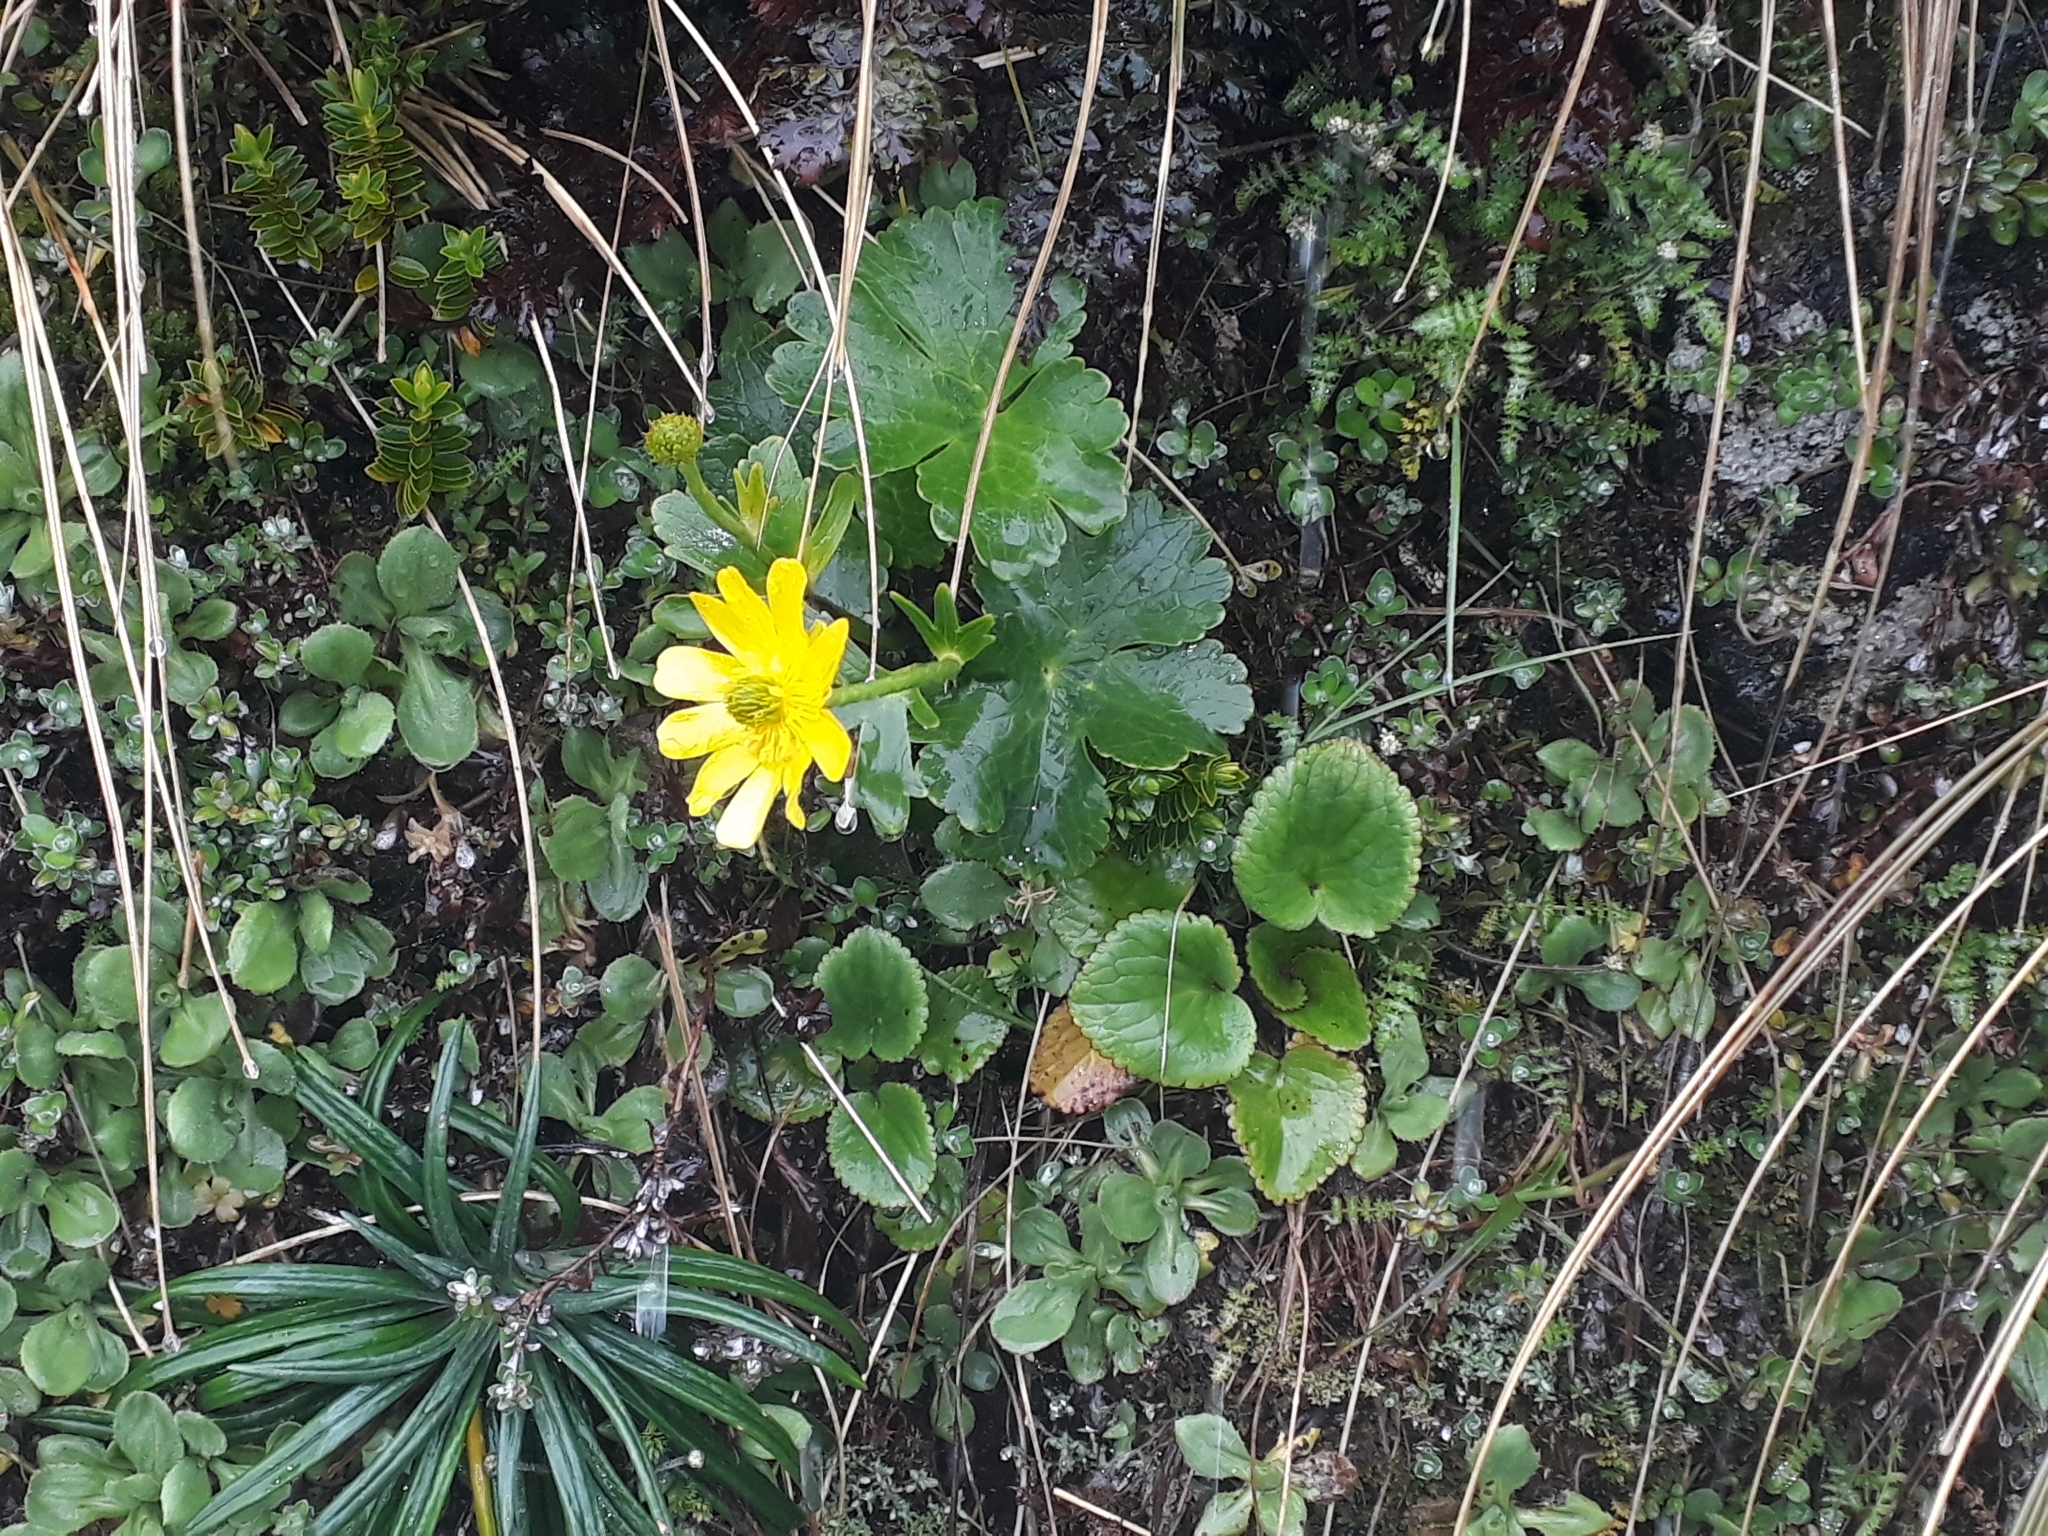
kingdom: Plantae
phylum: Tracheophyta
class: Magnoliopsida
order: Ranunculales
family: Ranunculaceae
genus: Ranunculus
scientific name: Ranunculus nivicola
